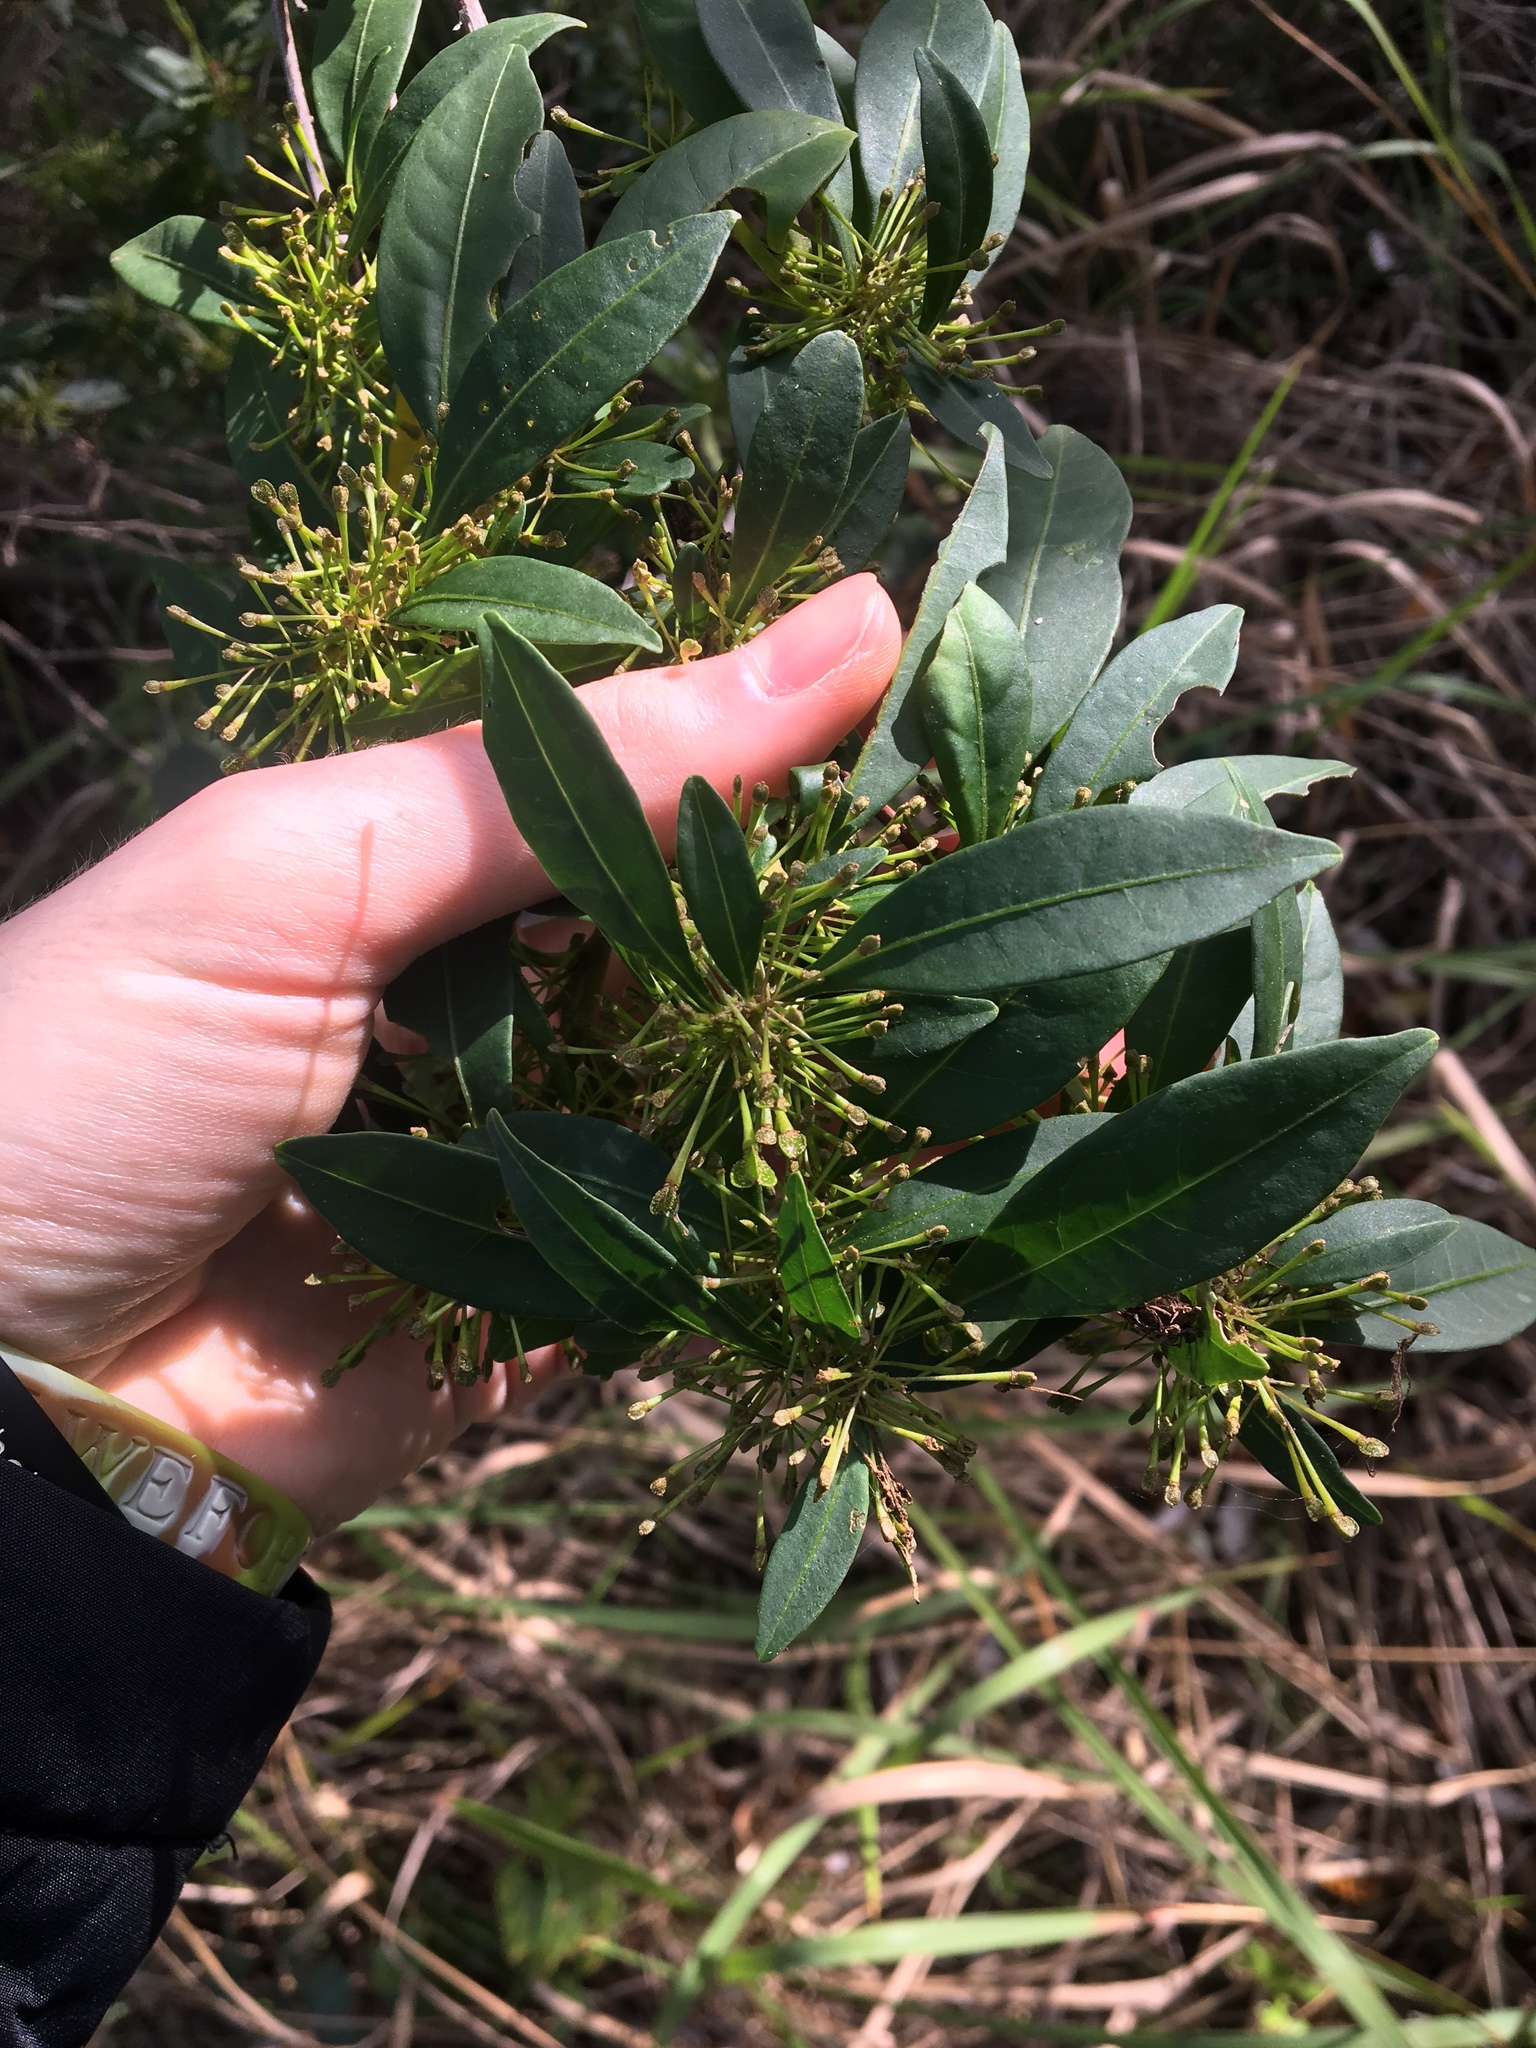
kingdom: Plantae
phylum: Tracheophyta
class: Magnoliopsida
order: Sapindales
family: Sapindaceae
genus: Dodonaea
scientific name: Dodonaea triquetra
